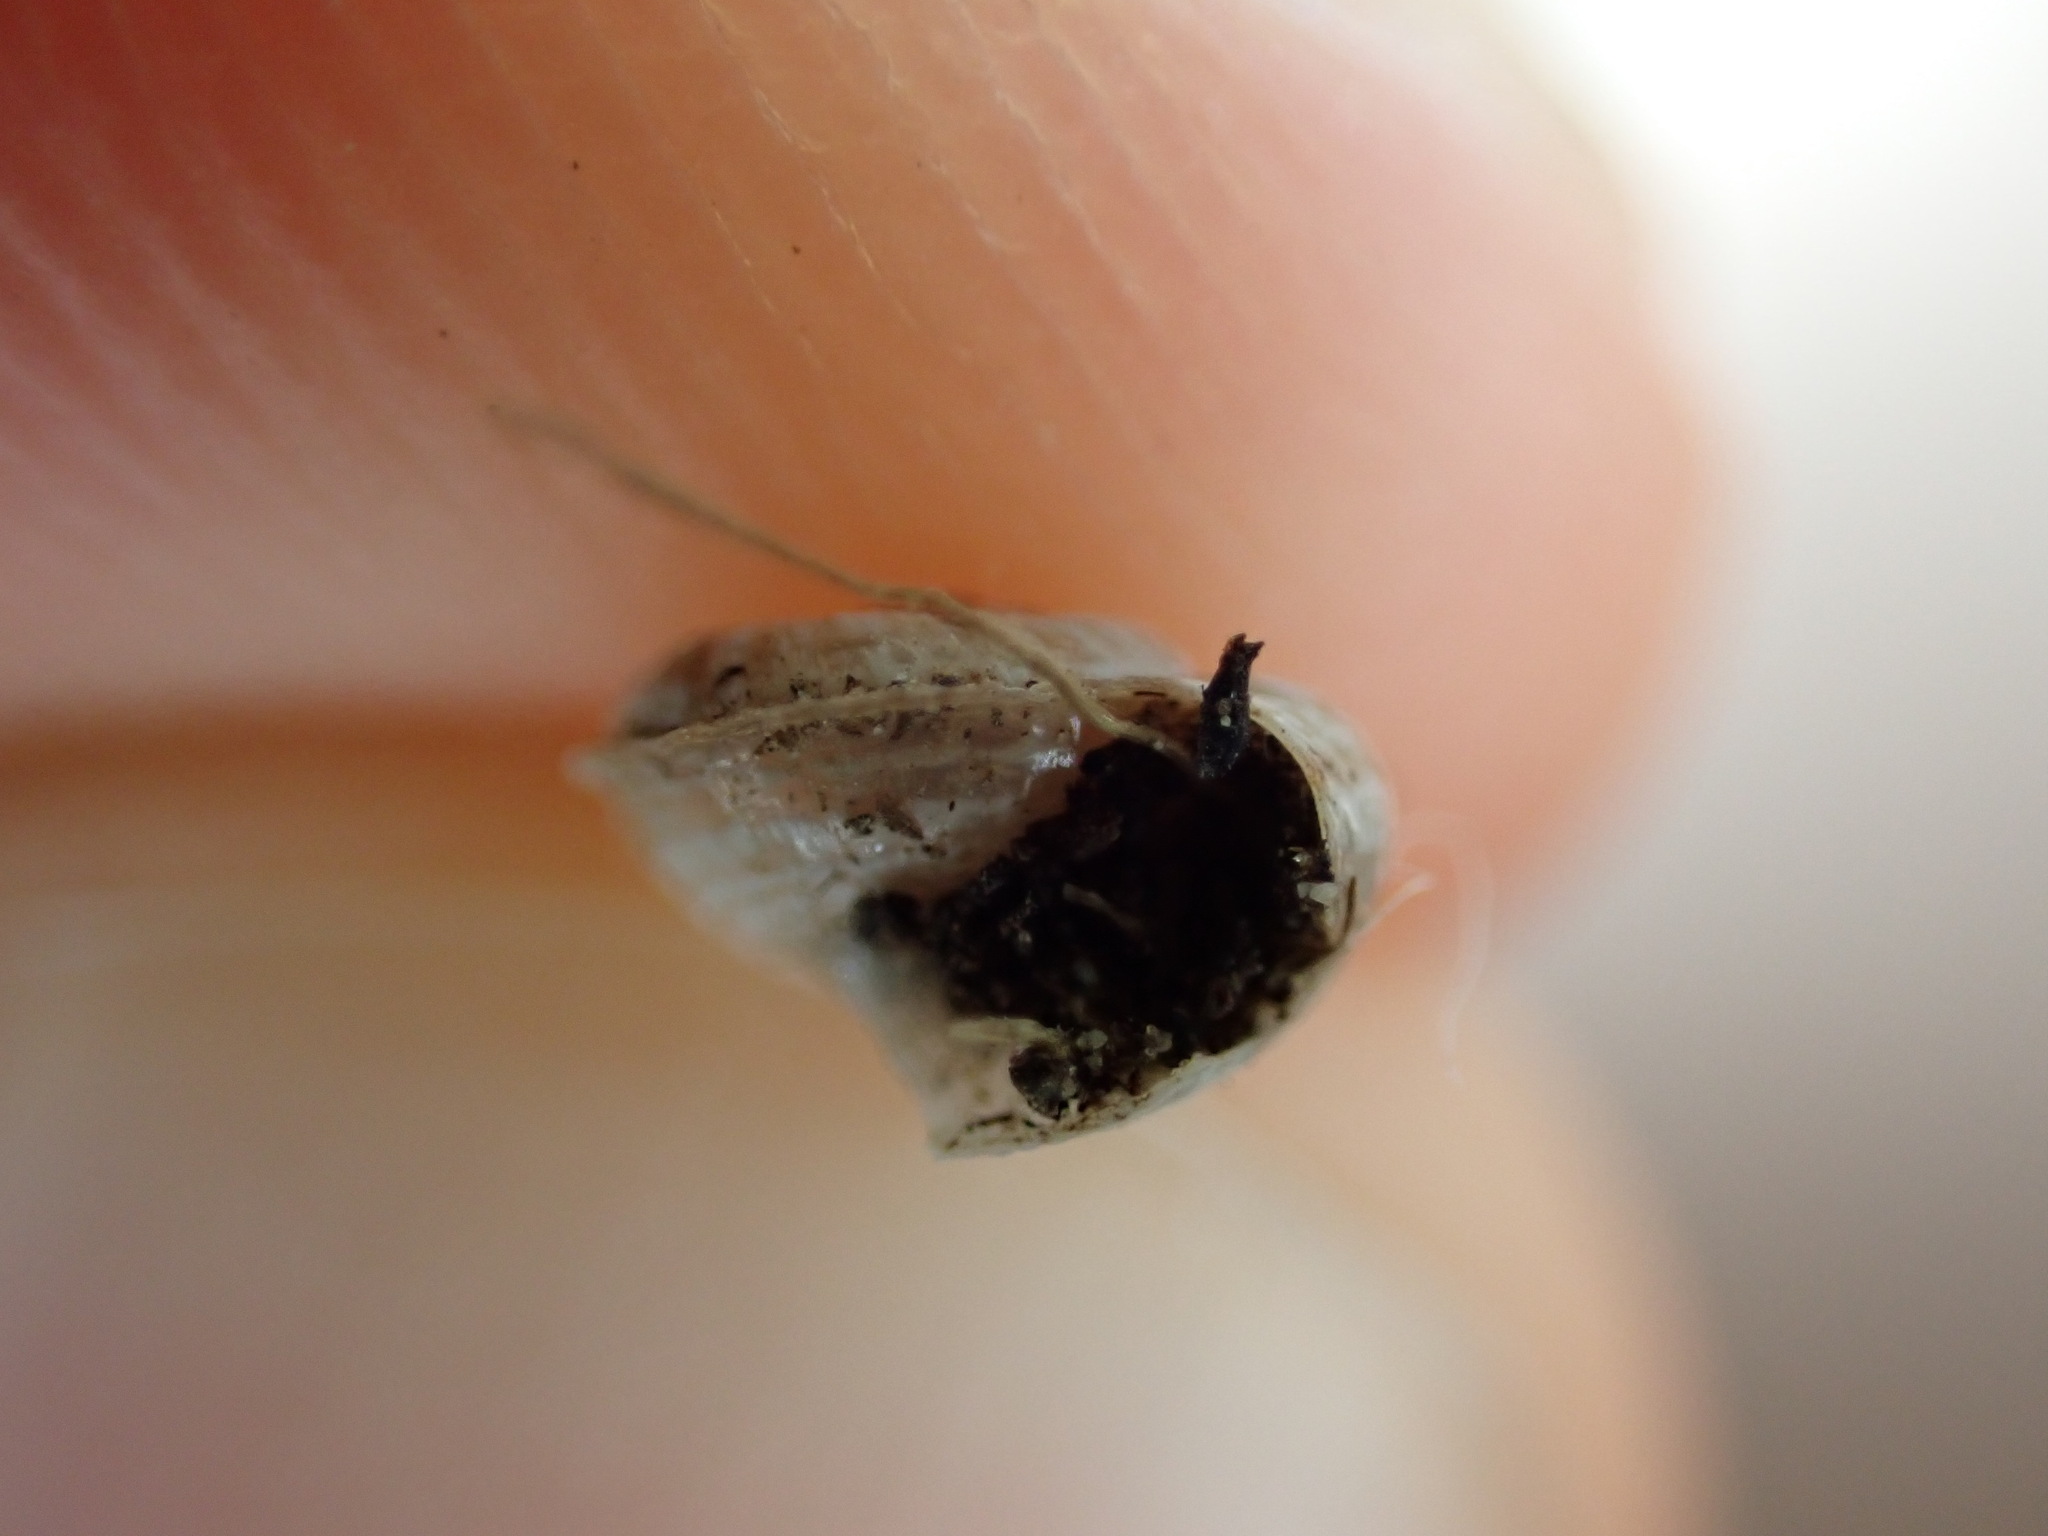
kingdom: Animalia
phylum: Mollusca
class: Gastropoda
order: Stylommatophora
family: Geomitridae
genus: Xerotricha
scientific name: Xerotricha apicina
